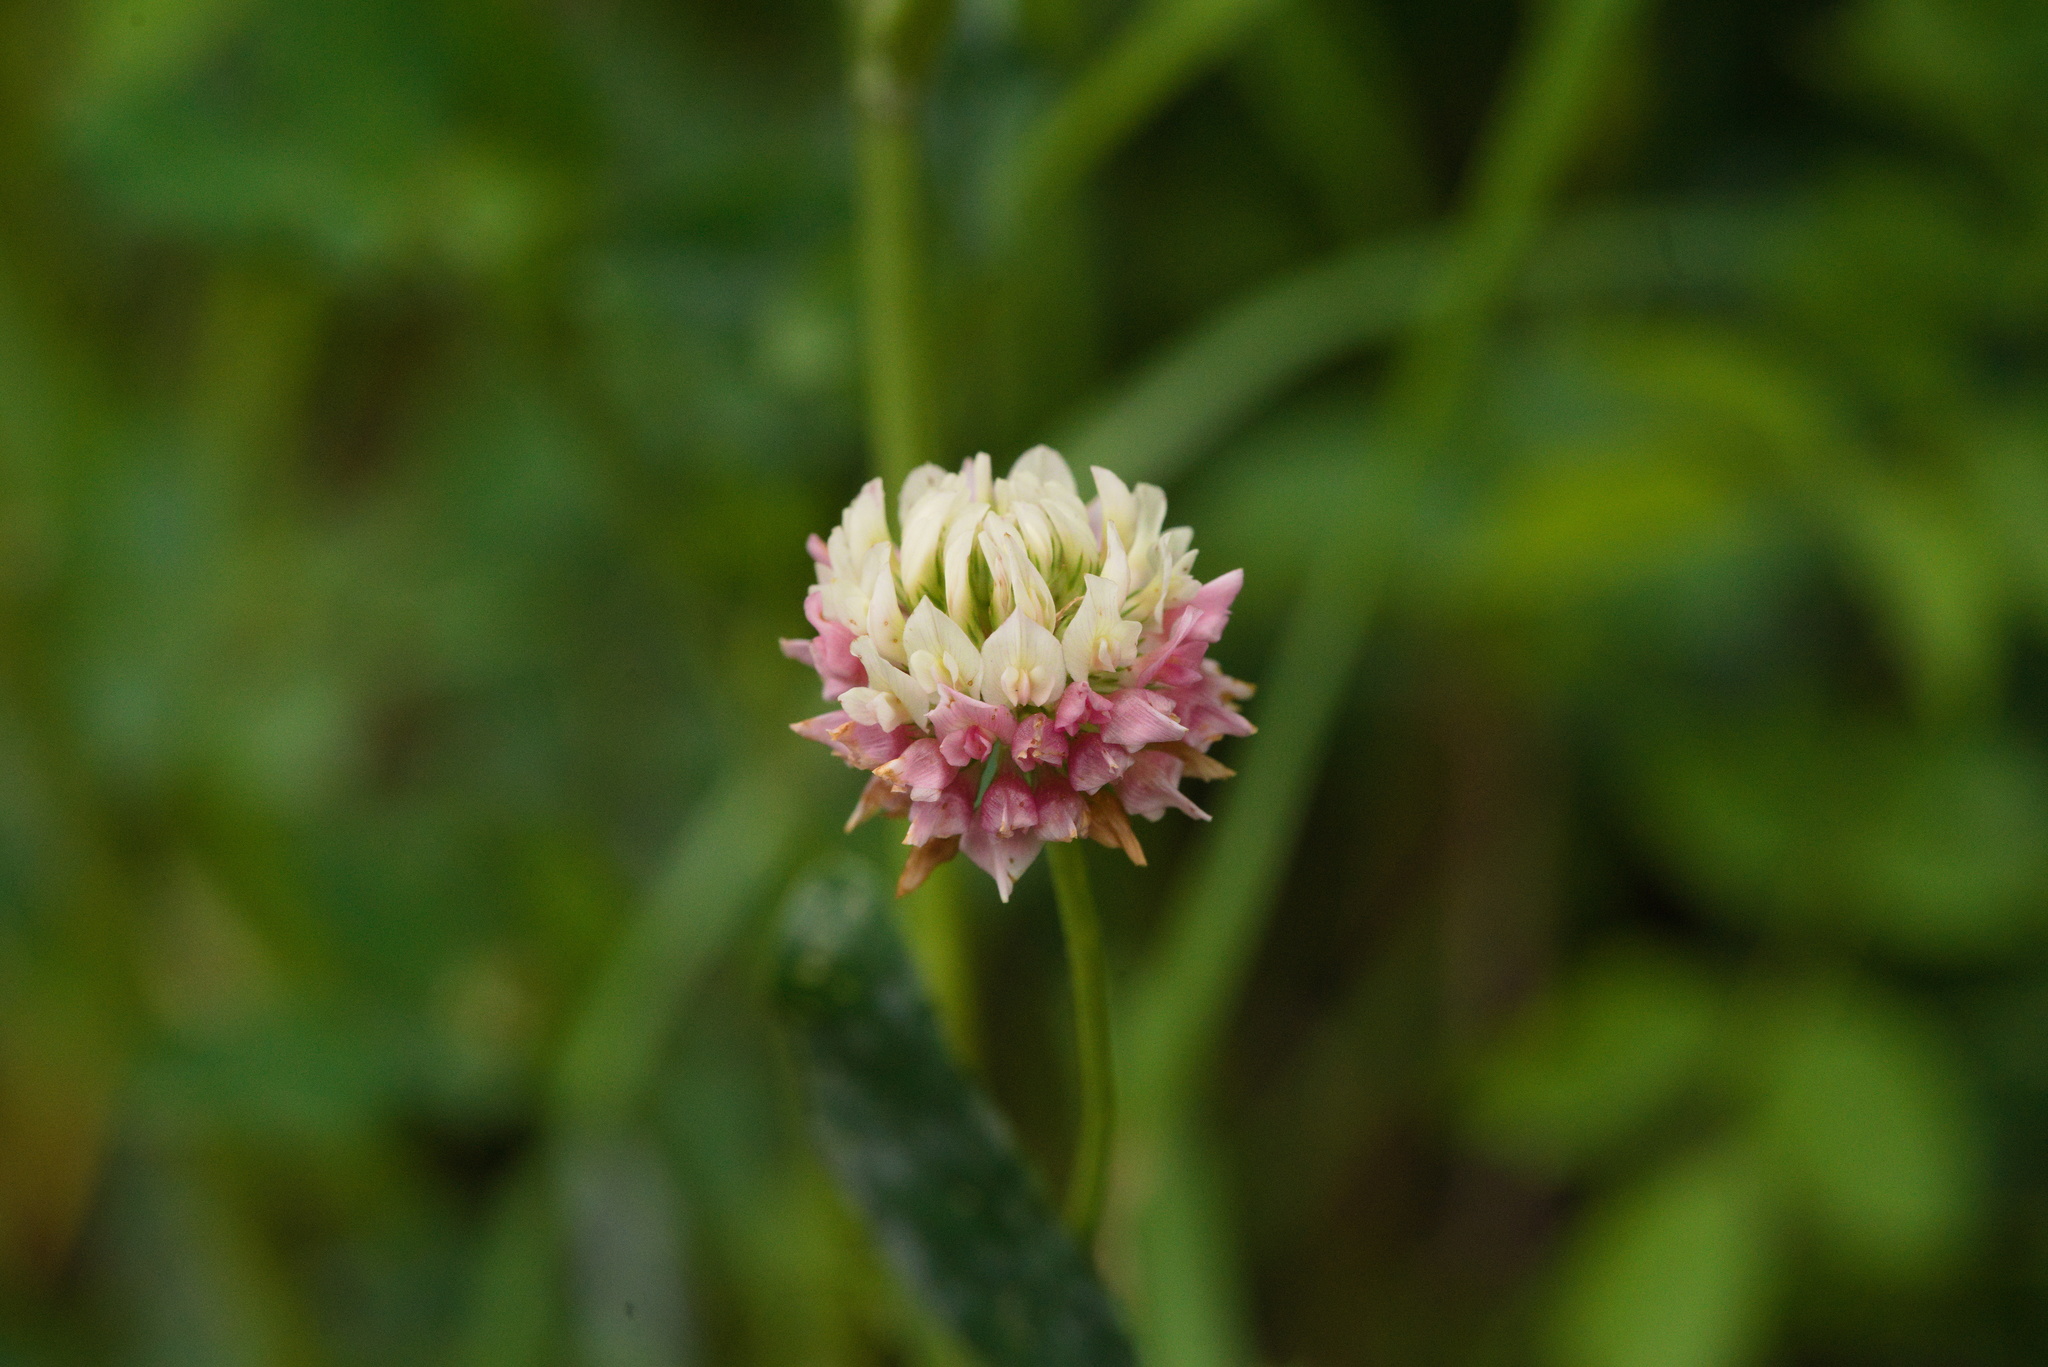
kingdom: Plantae
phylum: Tracheophyta
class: Magnoliopsida
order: Fabales
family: Fabaceae
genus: Trifolium
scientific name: Trifolium hybridum
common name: Alsike clover
